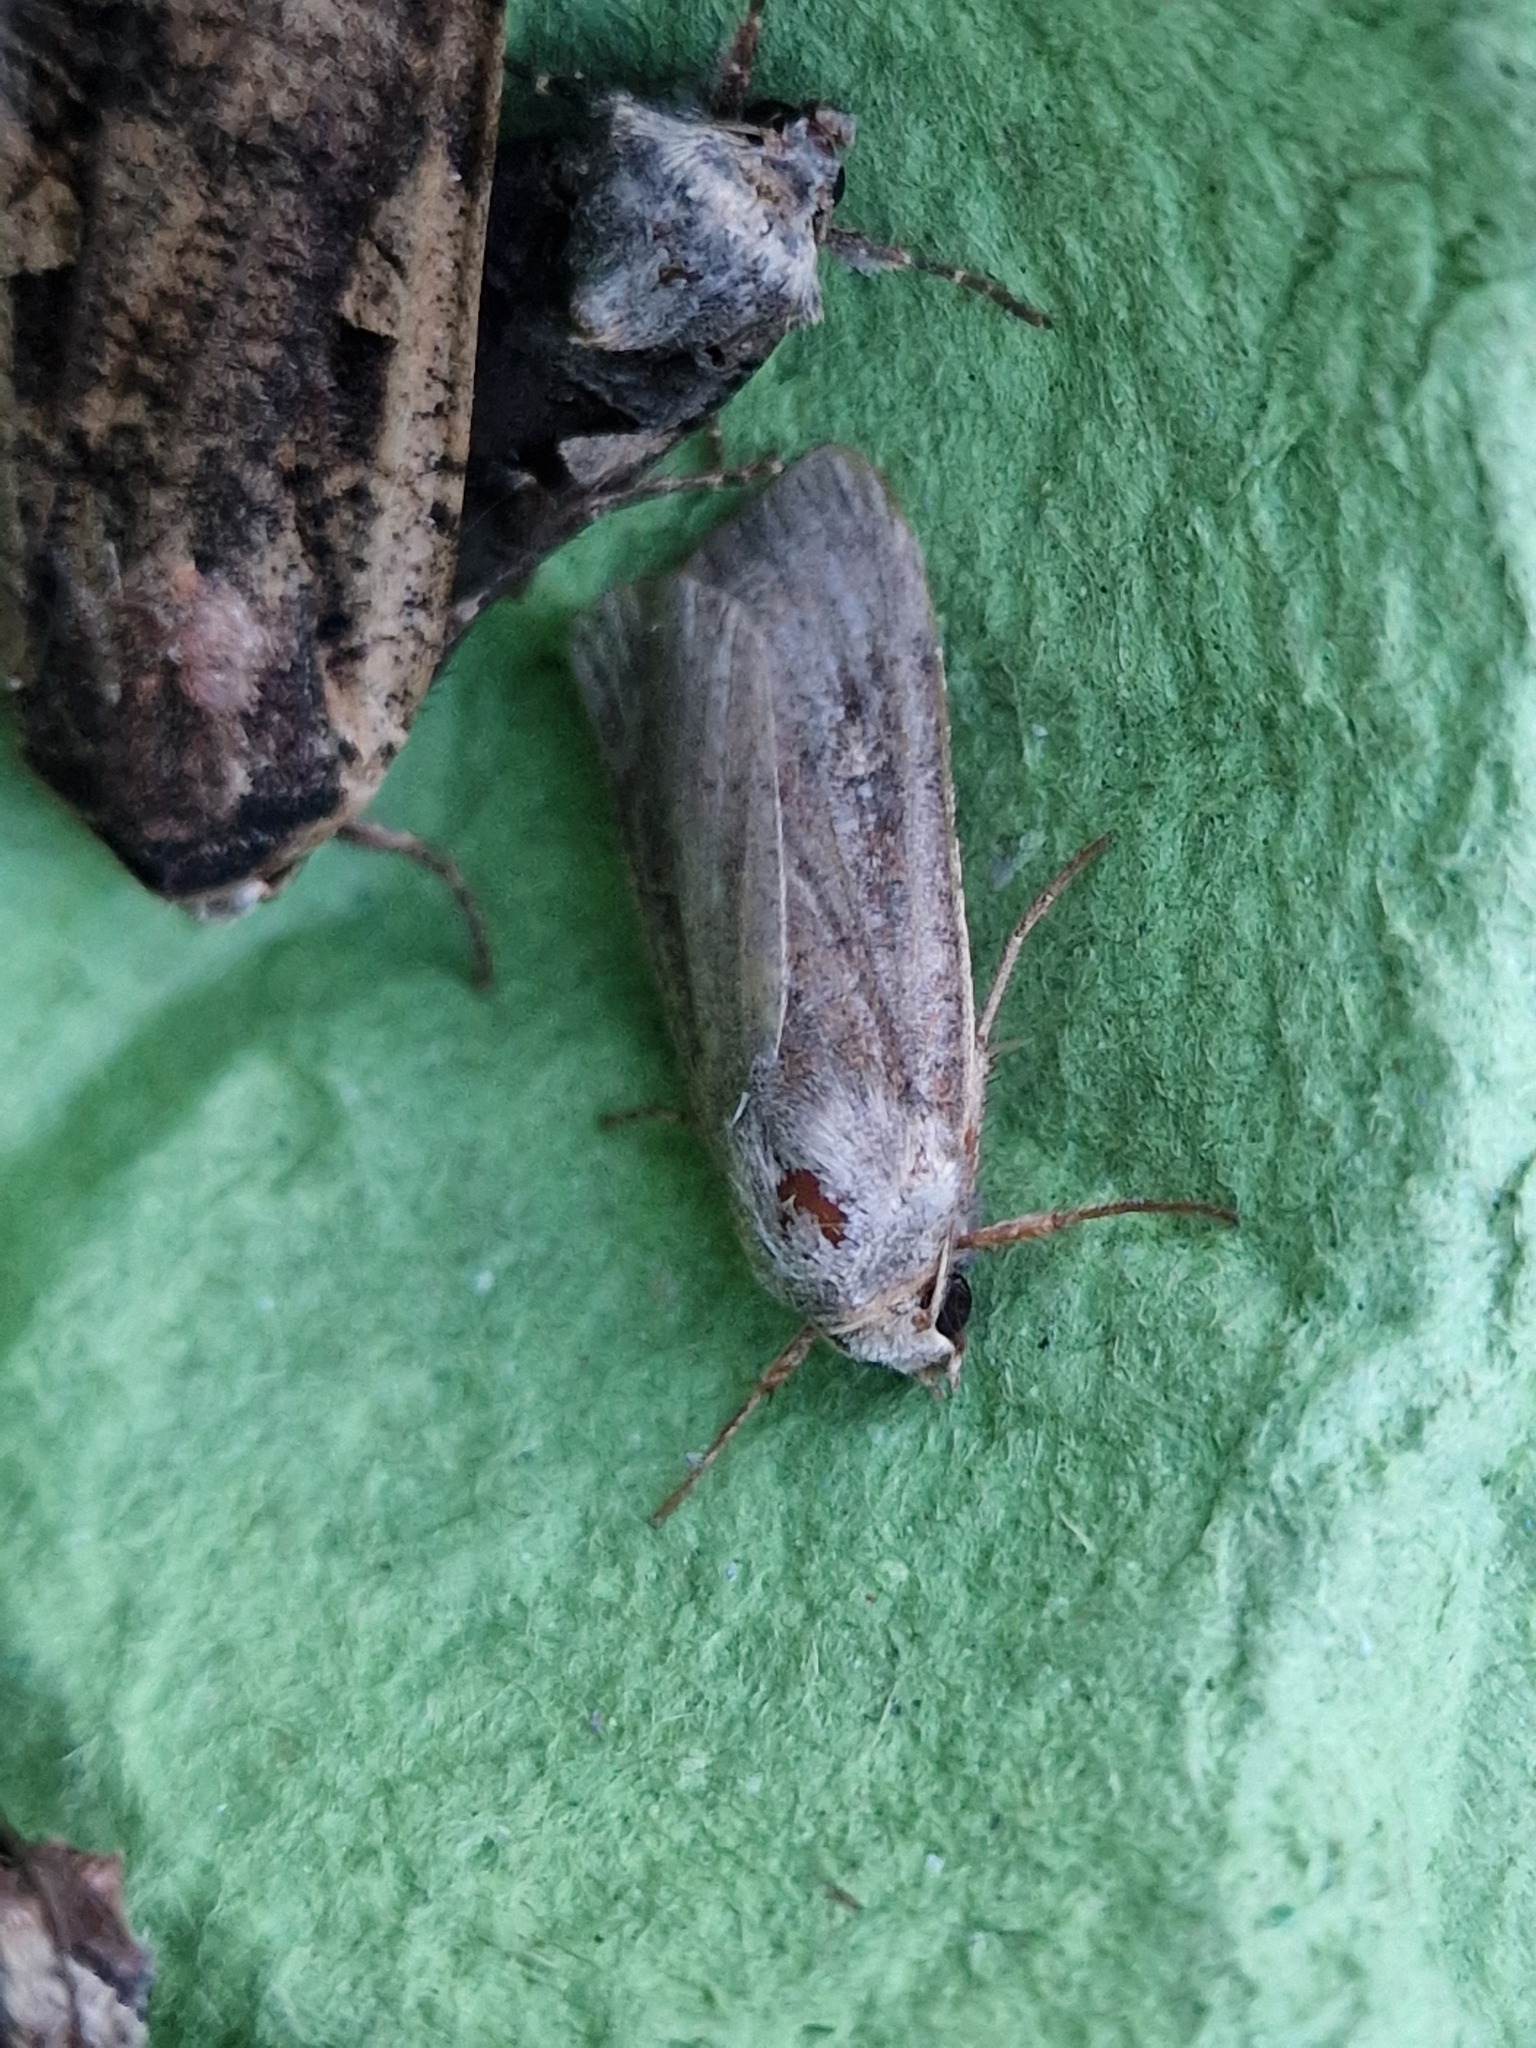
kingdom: Animalia
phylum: Arthropoda
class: Insecta
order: Lepidoptera
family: Noctuidae
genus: Xestia
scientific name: Xestia xanthographa
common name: Square-spot rustic
